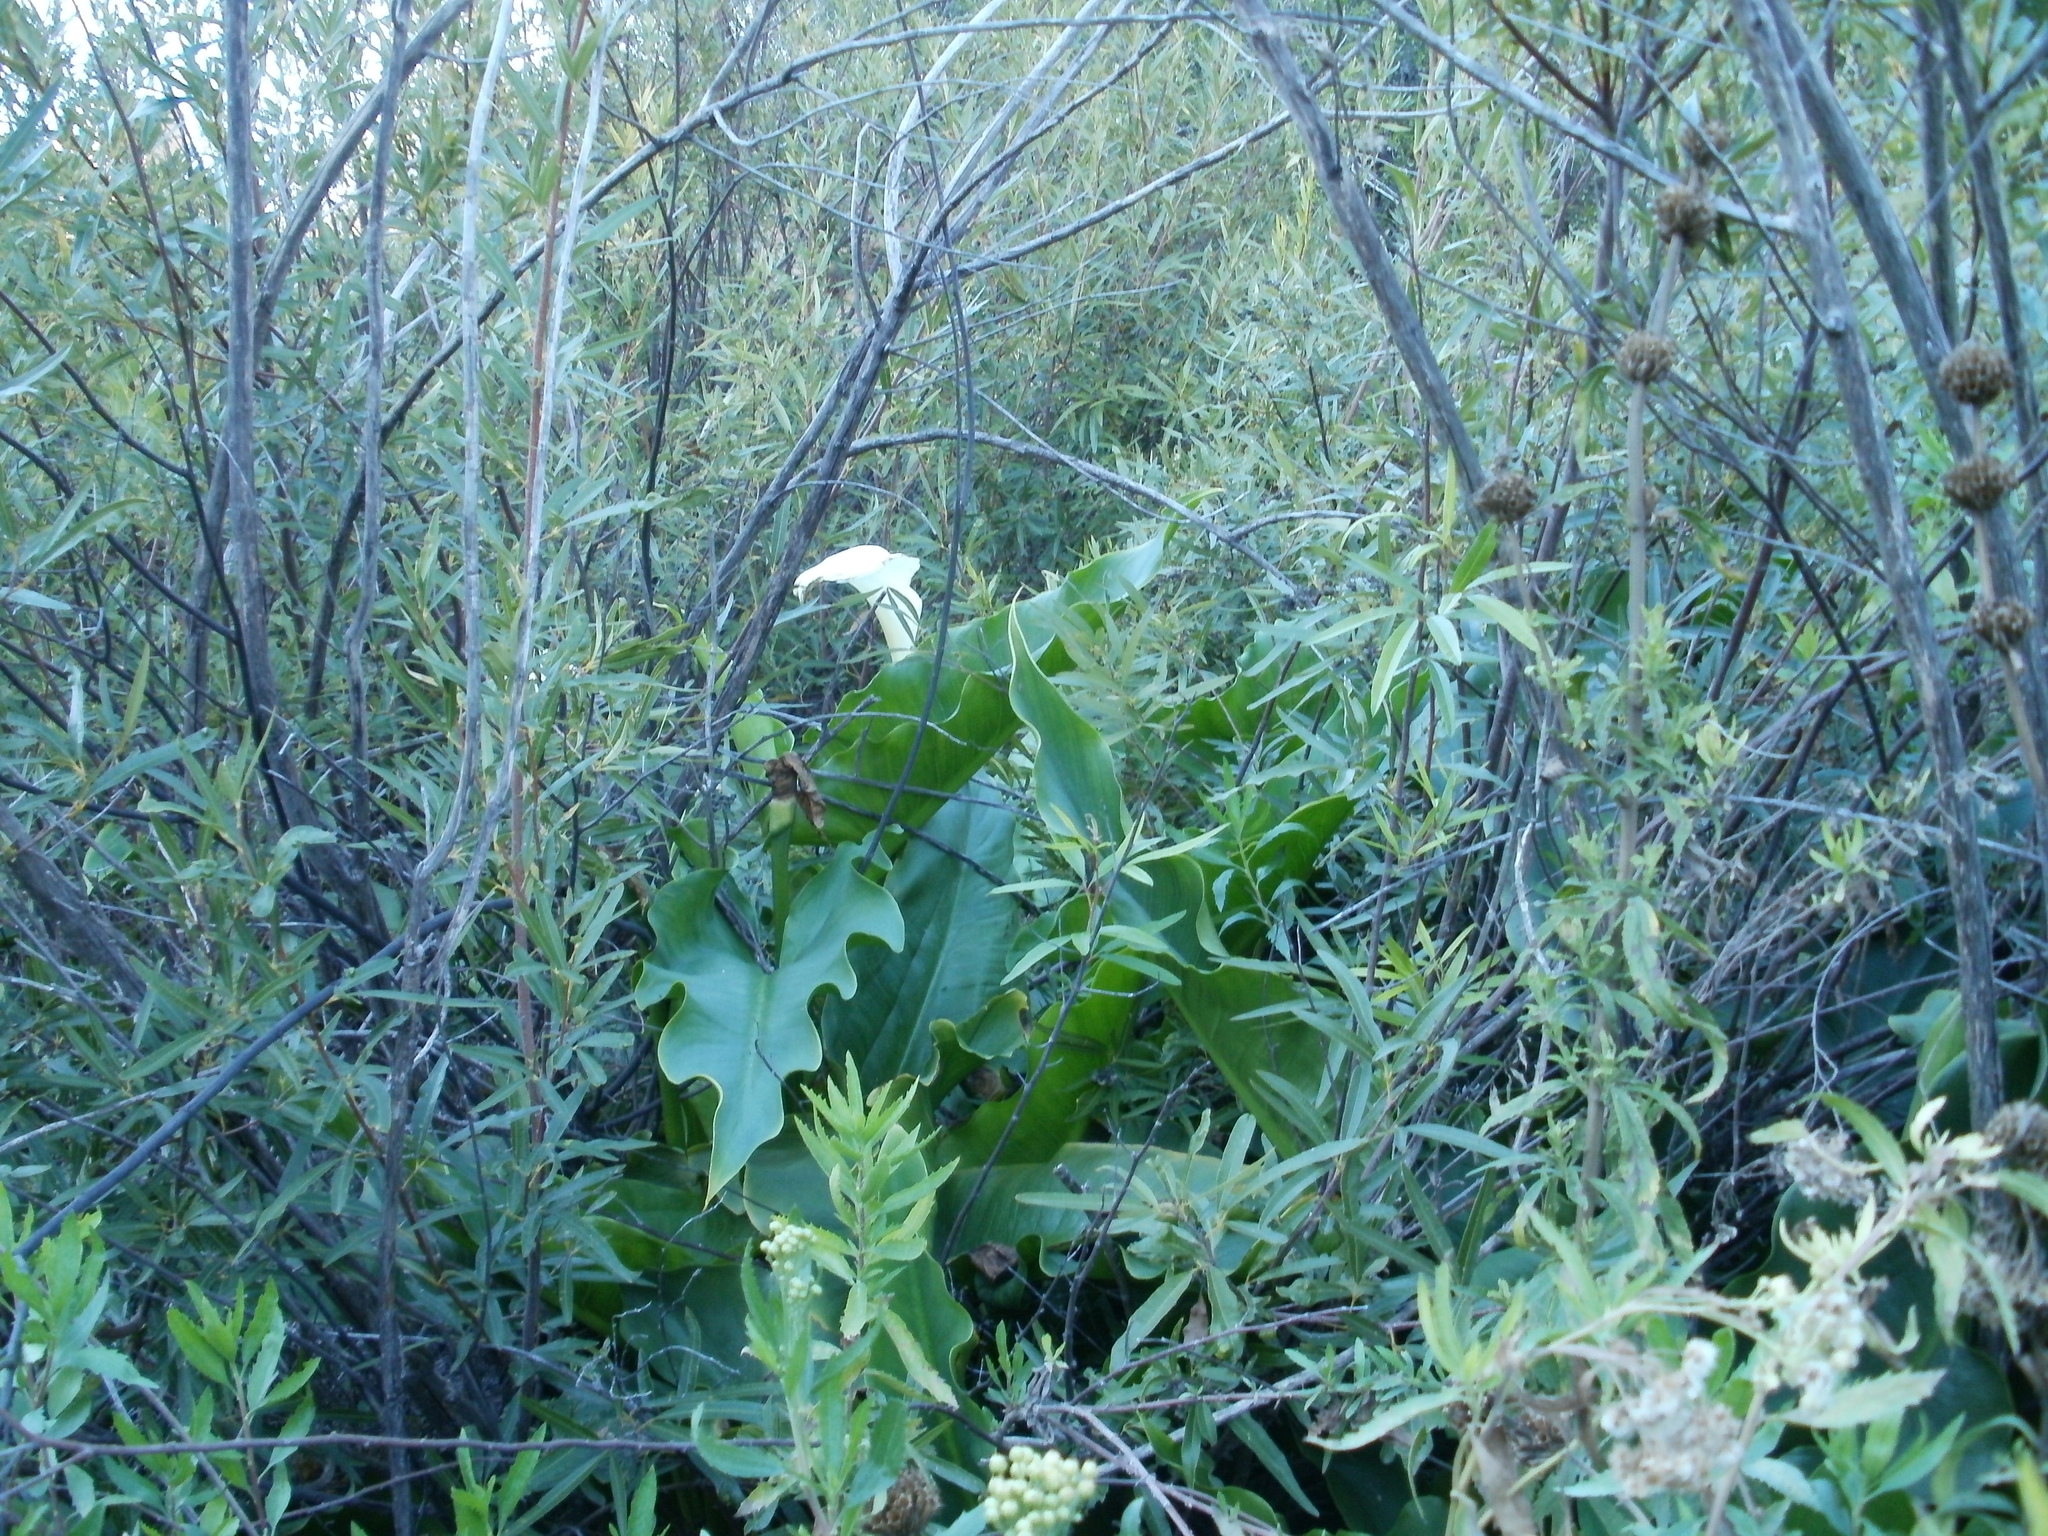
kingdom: Plantae
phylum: Tracheophyta
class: Liliopsida
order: Alismatales
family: Araceae
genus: Zantedeschia
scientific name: Zantedeschia aethiopica
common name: Altar-lily
